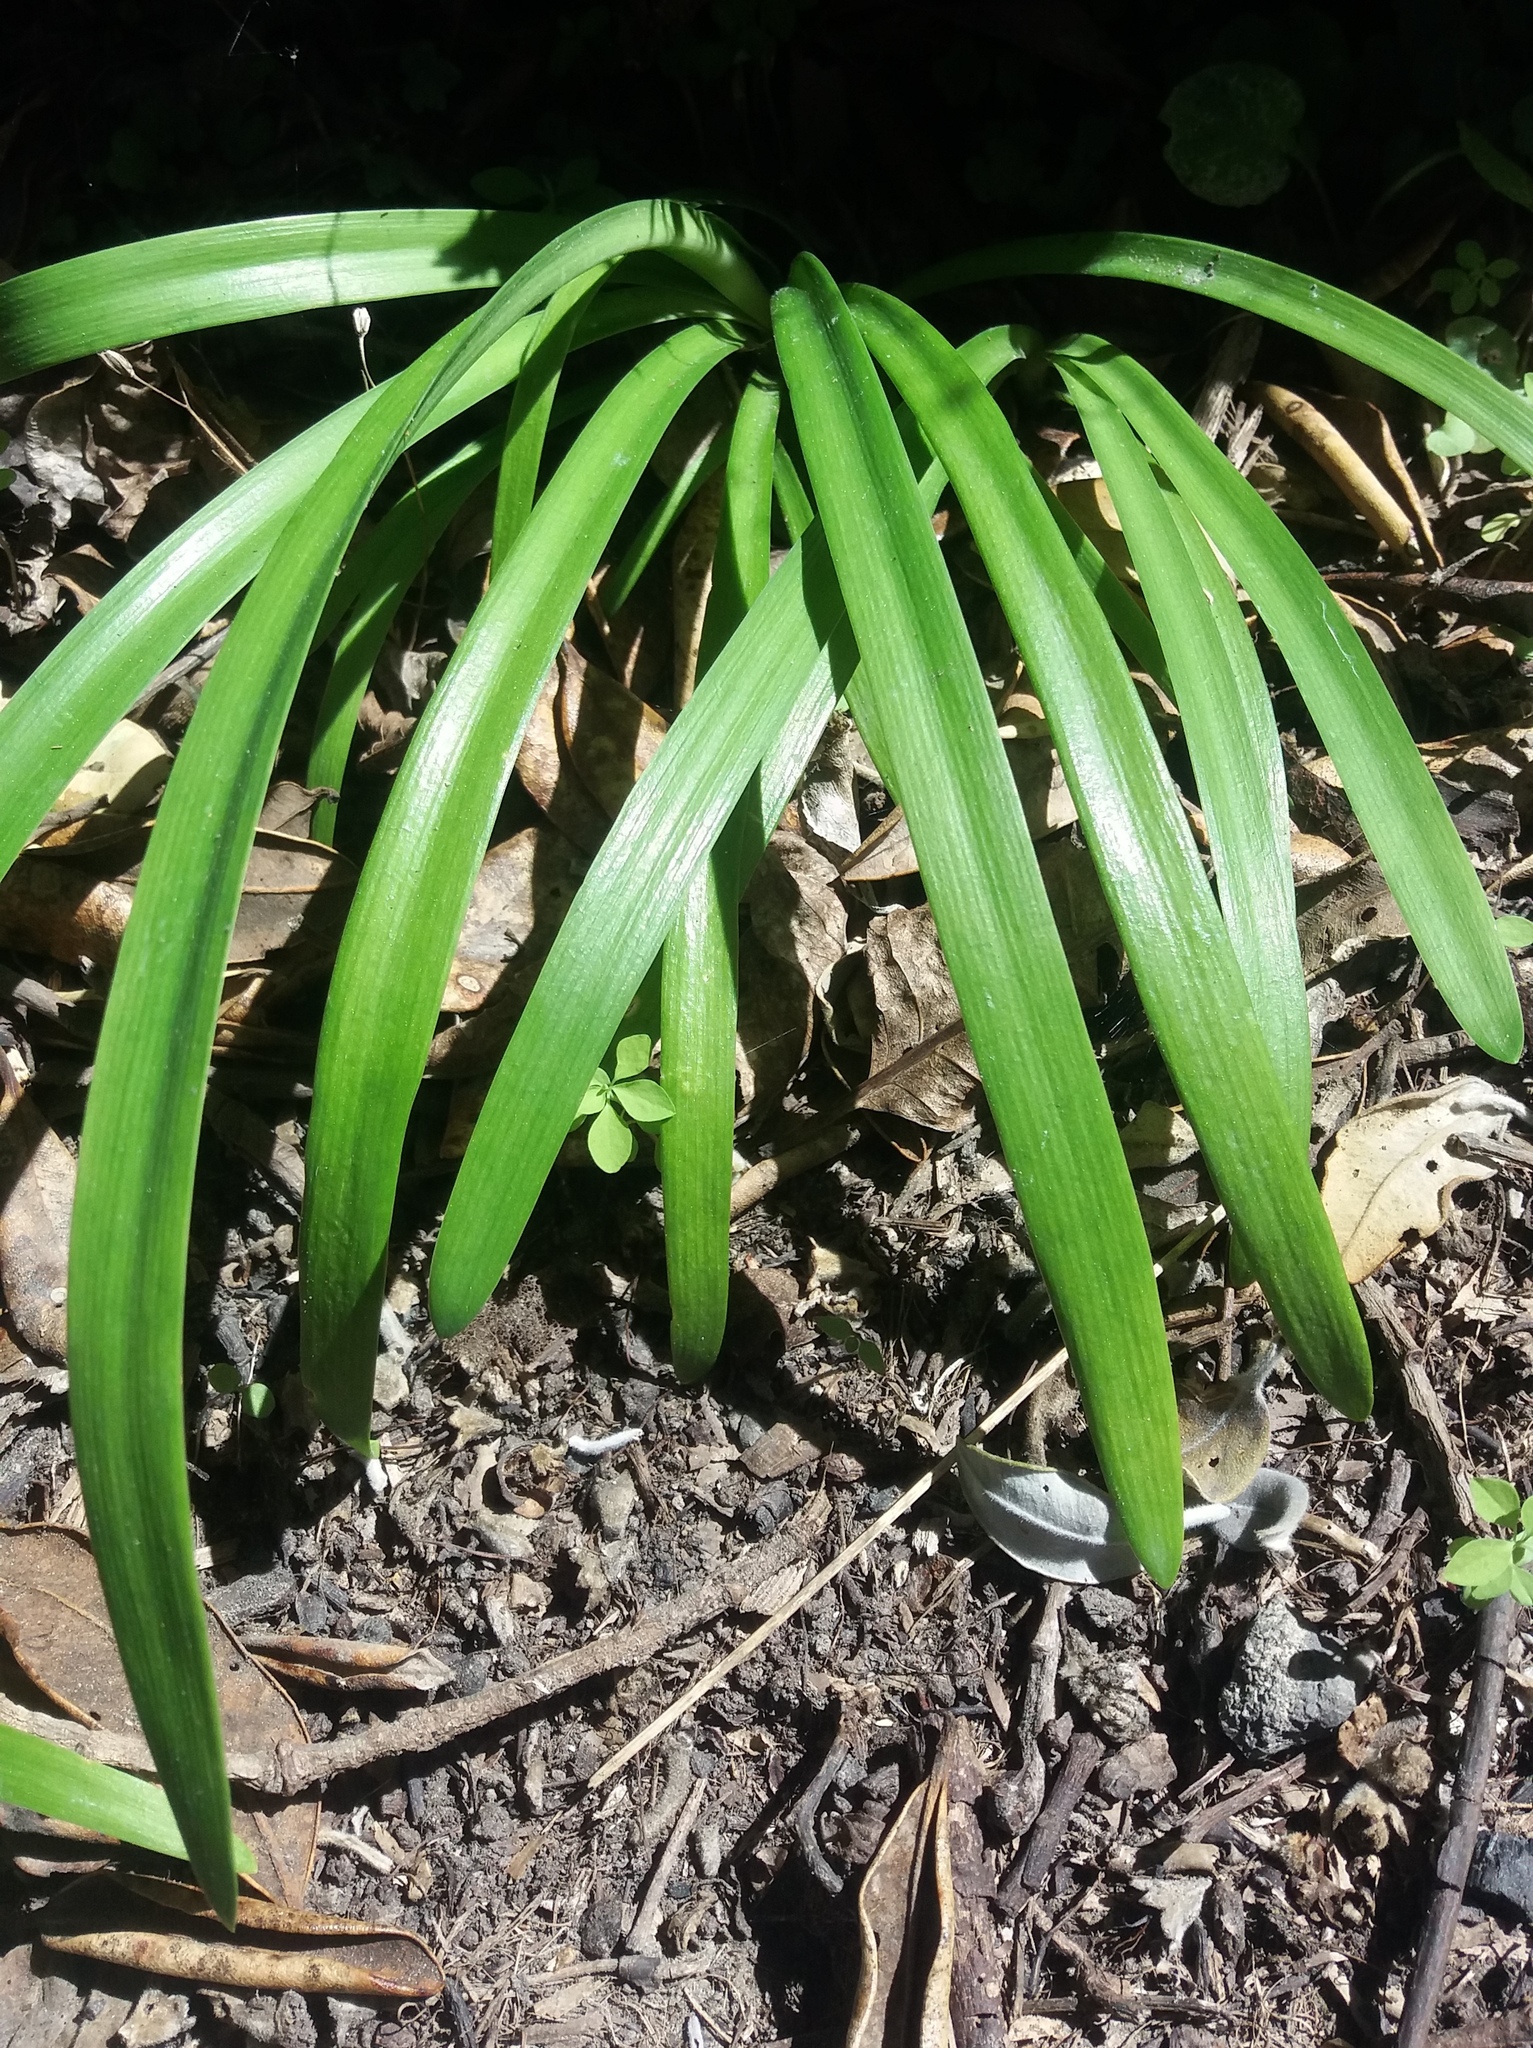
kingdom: Plantae
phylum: Tracheophyta
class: Liliopsida
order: Asparagales
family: Amaryllidaceae
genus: Agapanthus
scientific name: Agapanthus praecox
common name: African-lily
